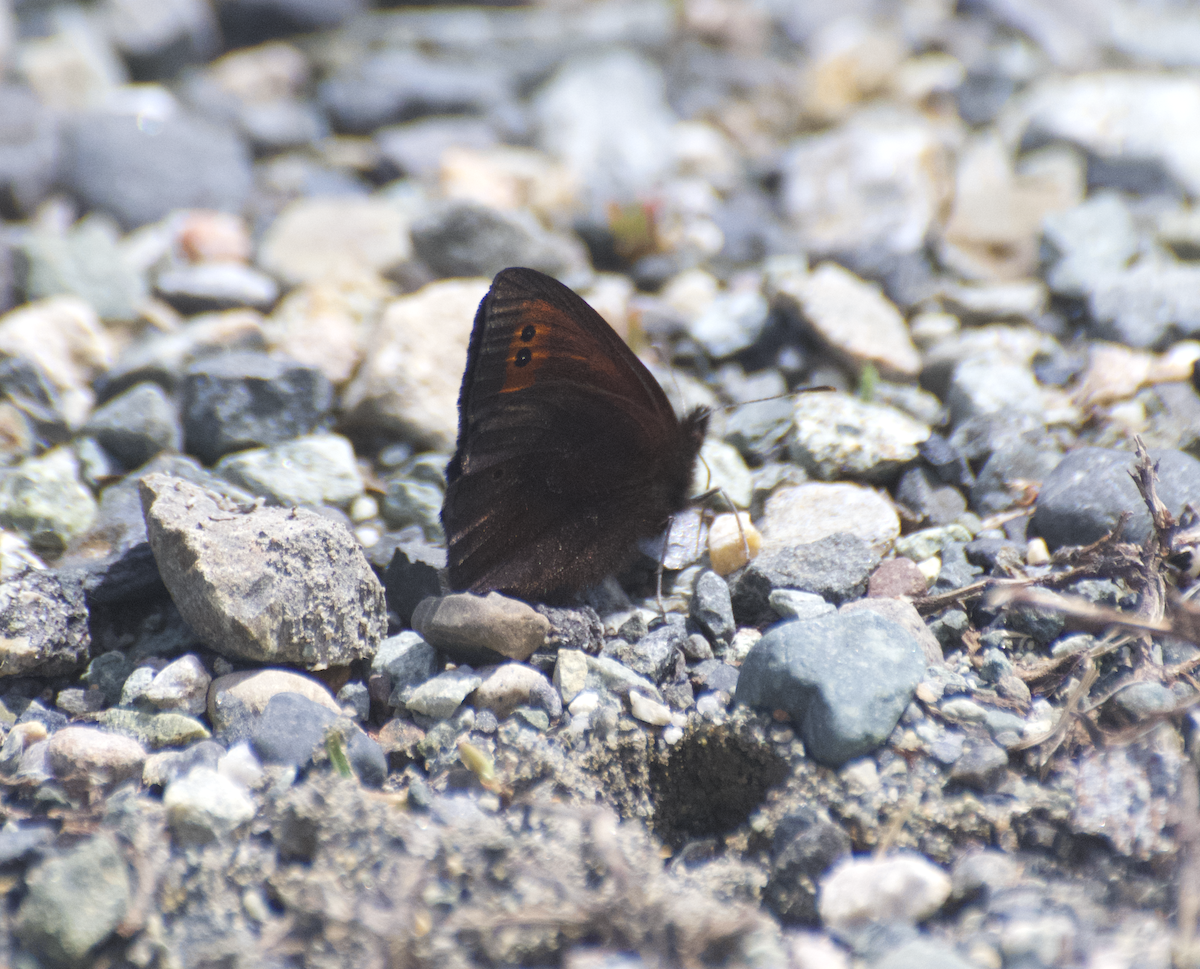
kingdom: Animalia
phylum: Arthropoda
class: Insecta
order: Lepidoptera
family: Nymphalidae
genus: Erebia
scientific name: Erebia epipsodea
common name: Common alpine
